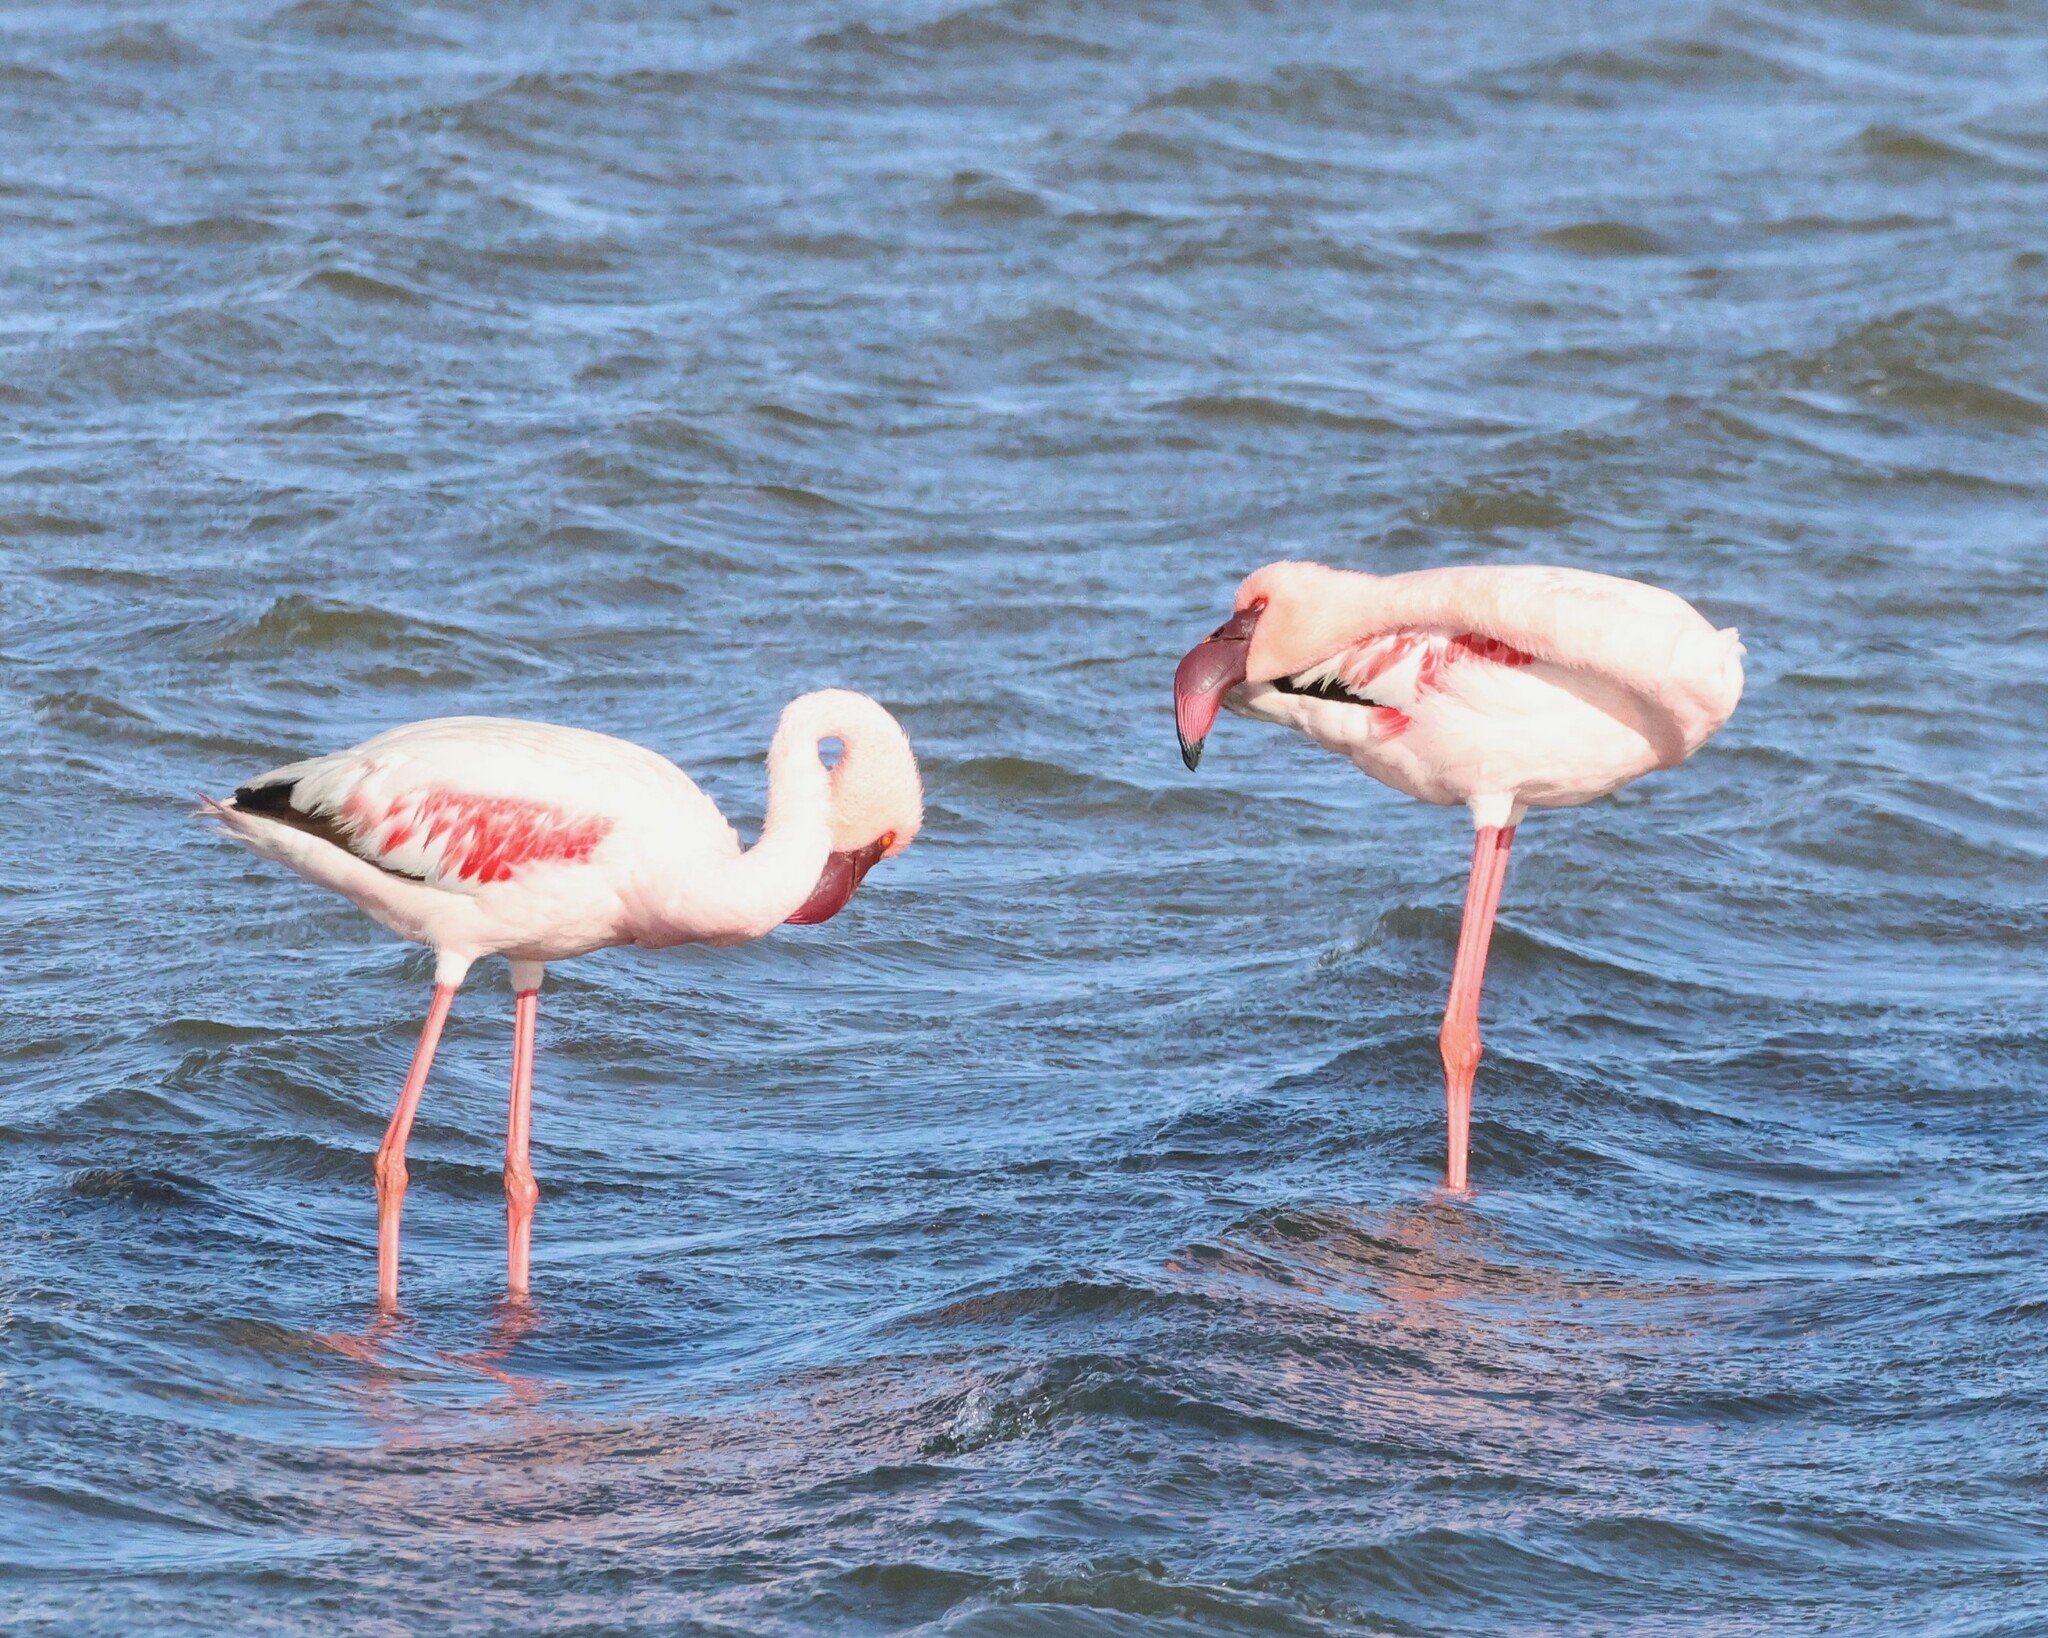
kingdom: Animalia
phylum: Chordata
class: Aves
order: Phoenicopteriformes
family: Phoenicopteridae
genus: Phoeniconaias
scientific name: Phoeniconaias minor
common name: Lesser flamingo
